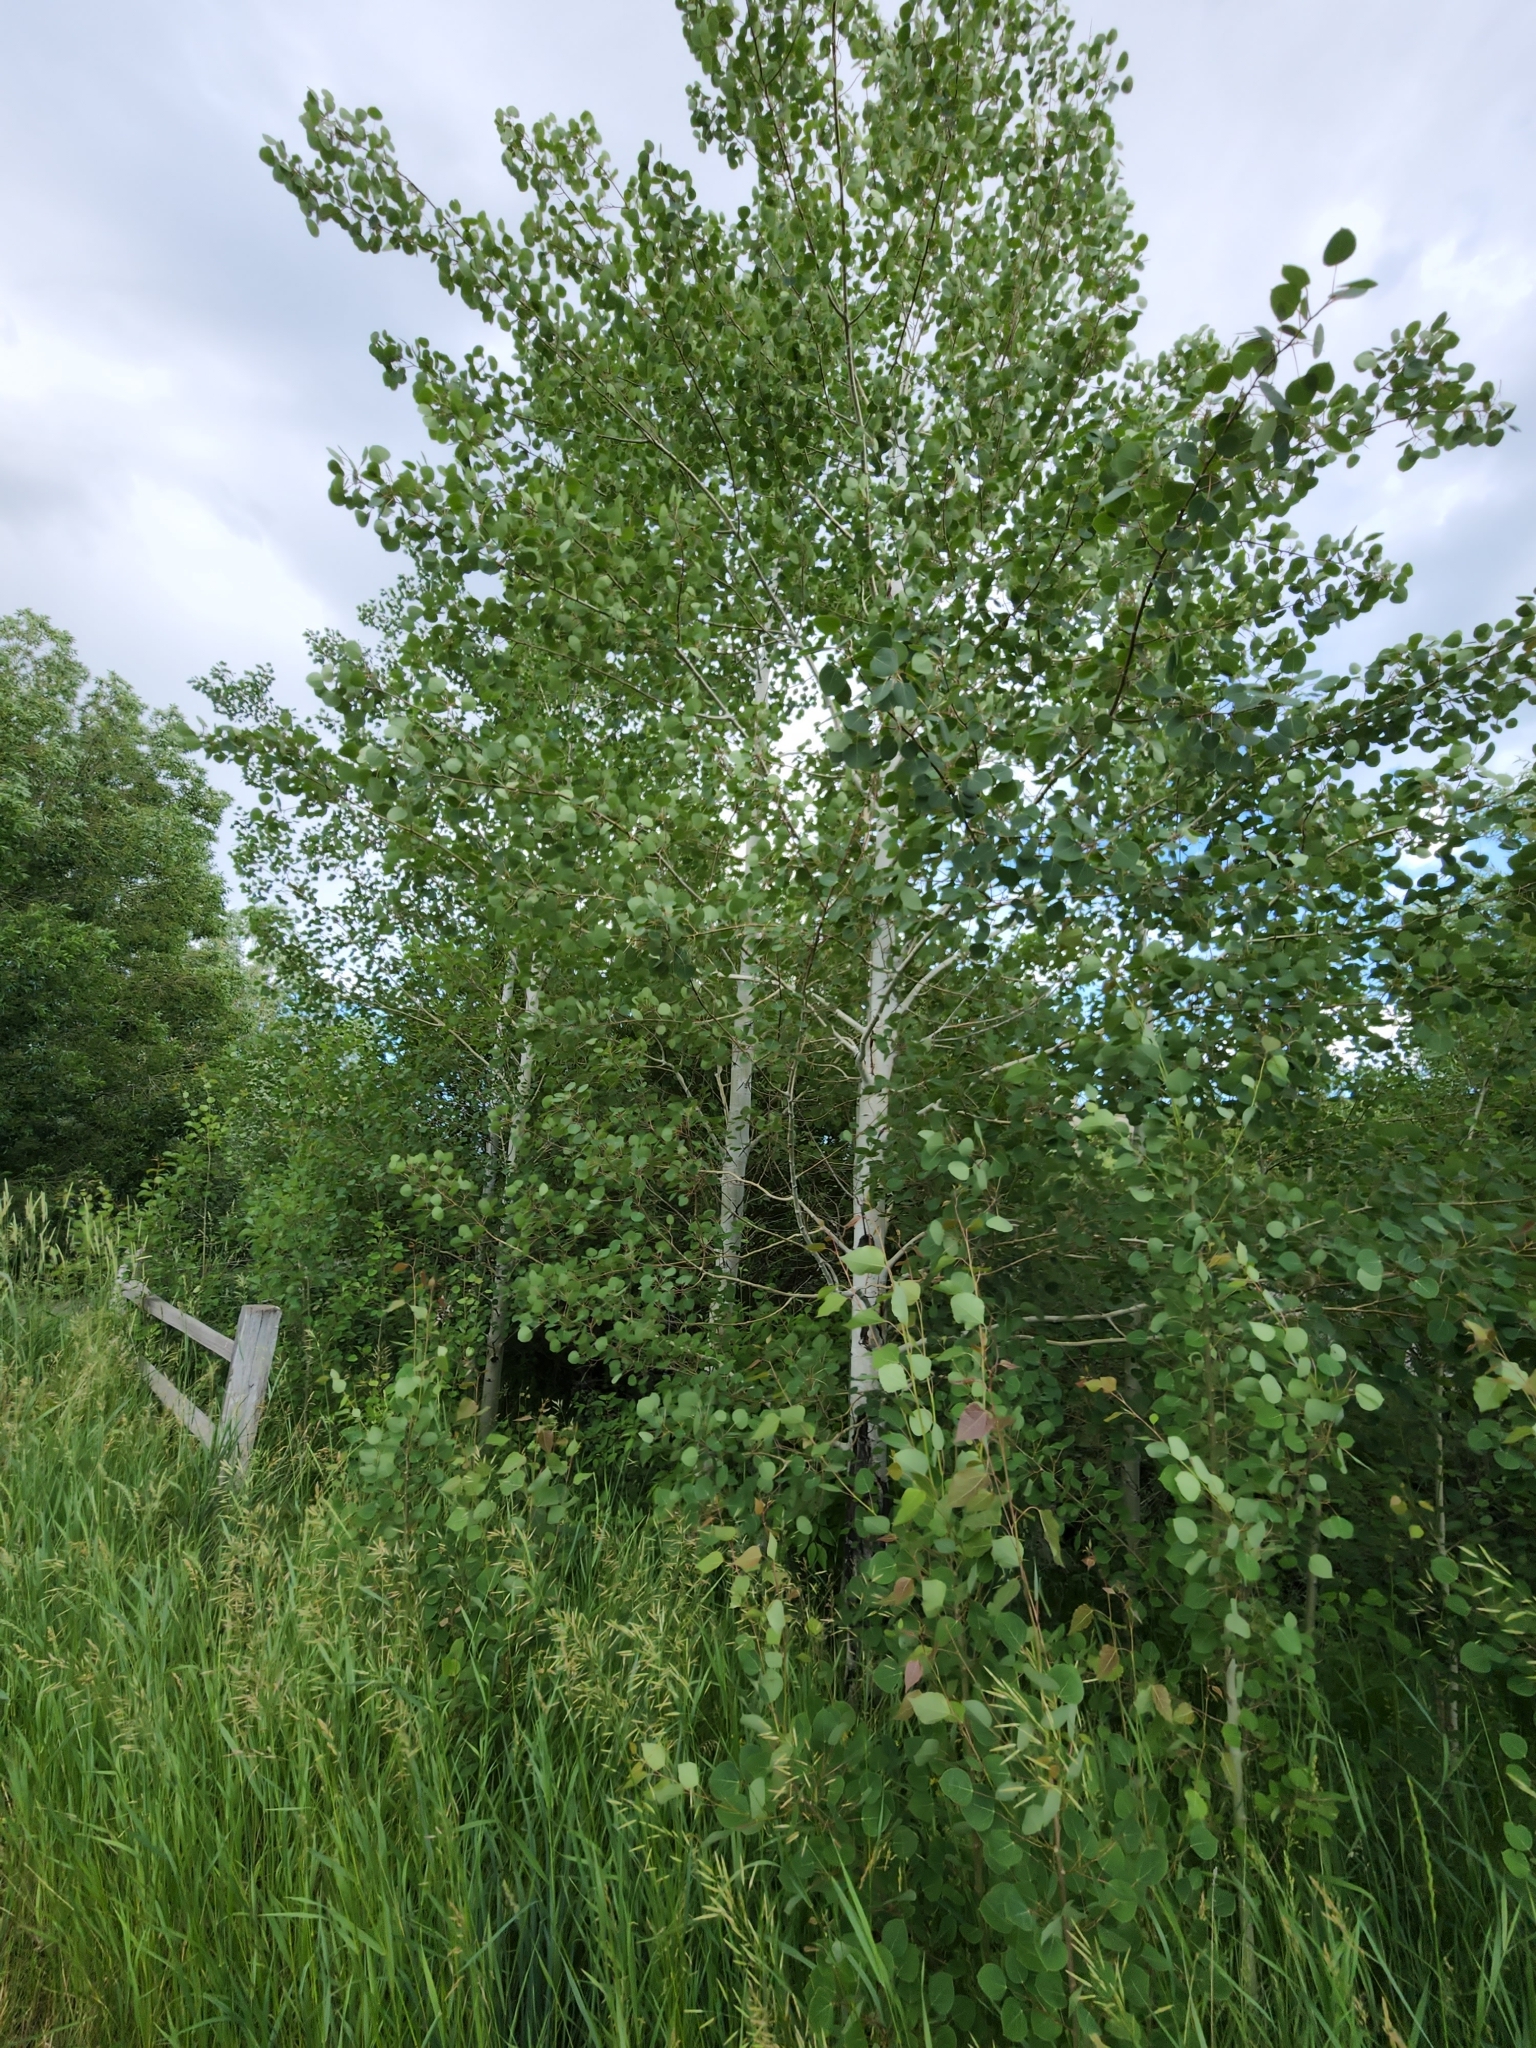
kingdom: Plantae
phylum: Tracheophyta
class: Magnoliopsida
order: Malpighiales
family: Salicaceae
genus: Populus
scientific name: Populus tremuloides
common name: Quaking aspen
